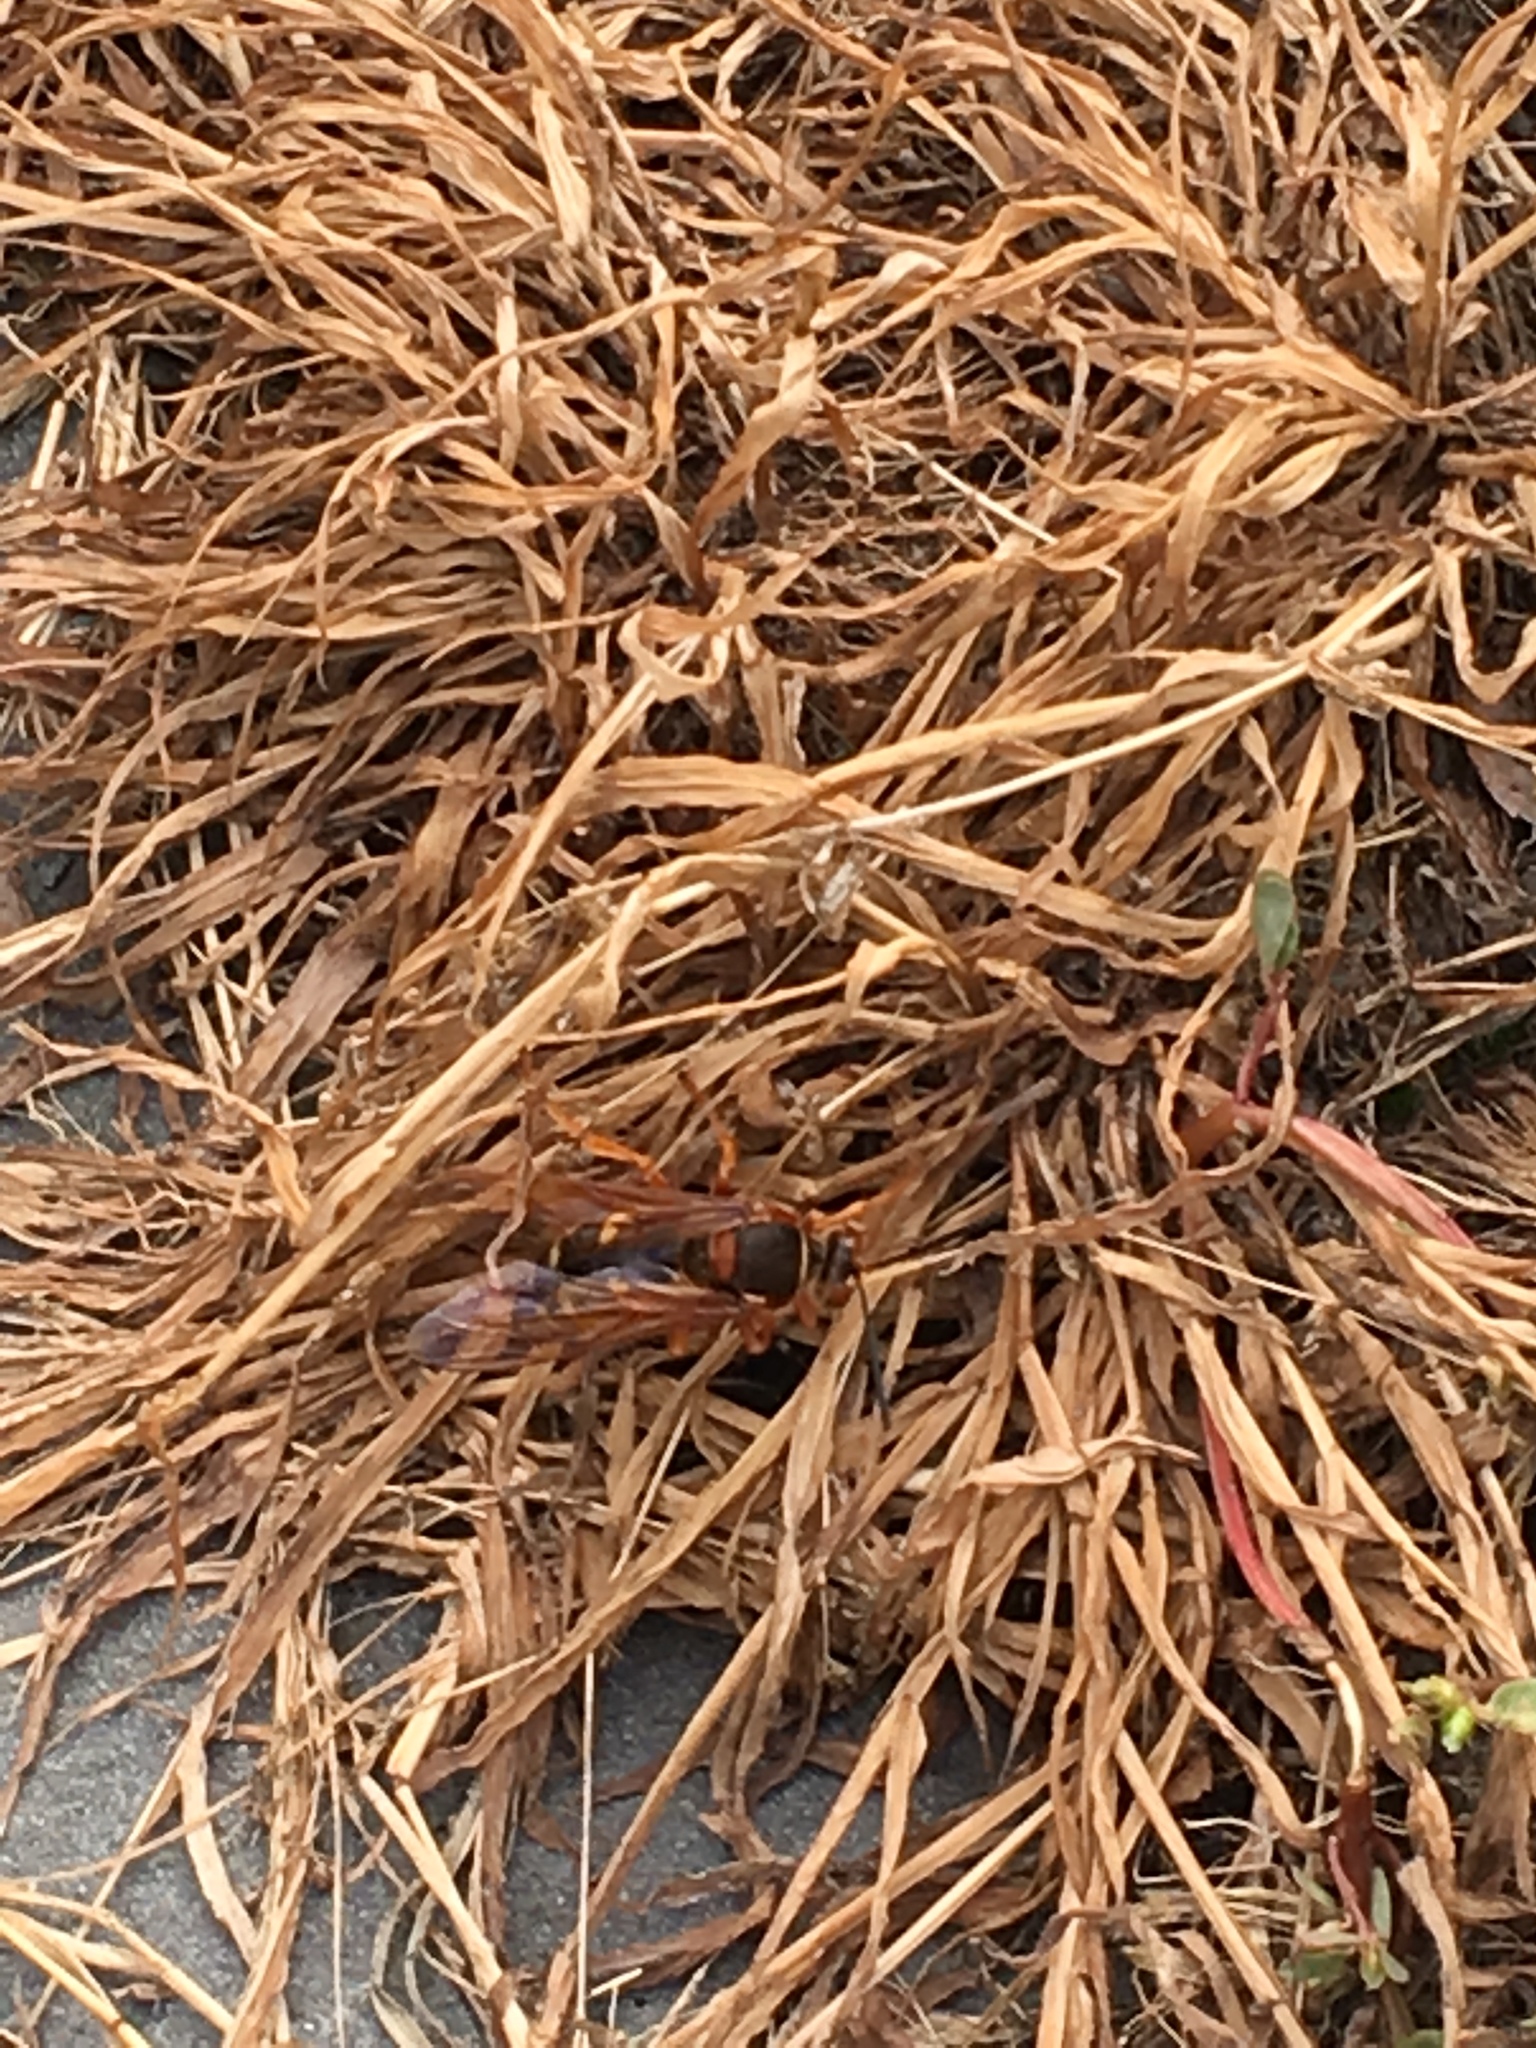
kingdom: Animalia
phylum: Arthropoda
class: Insecta
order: Hymenoptera
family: Crabronidae
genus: Sphecius
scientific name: Sphecius speciosus
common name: Cicada killer
